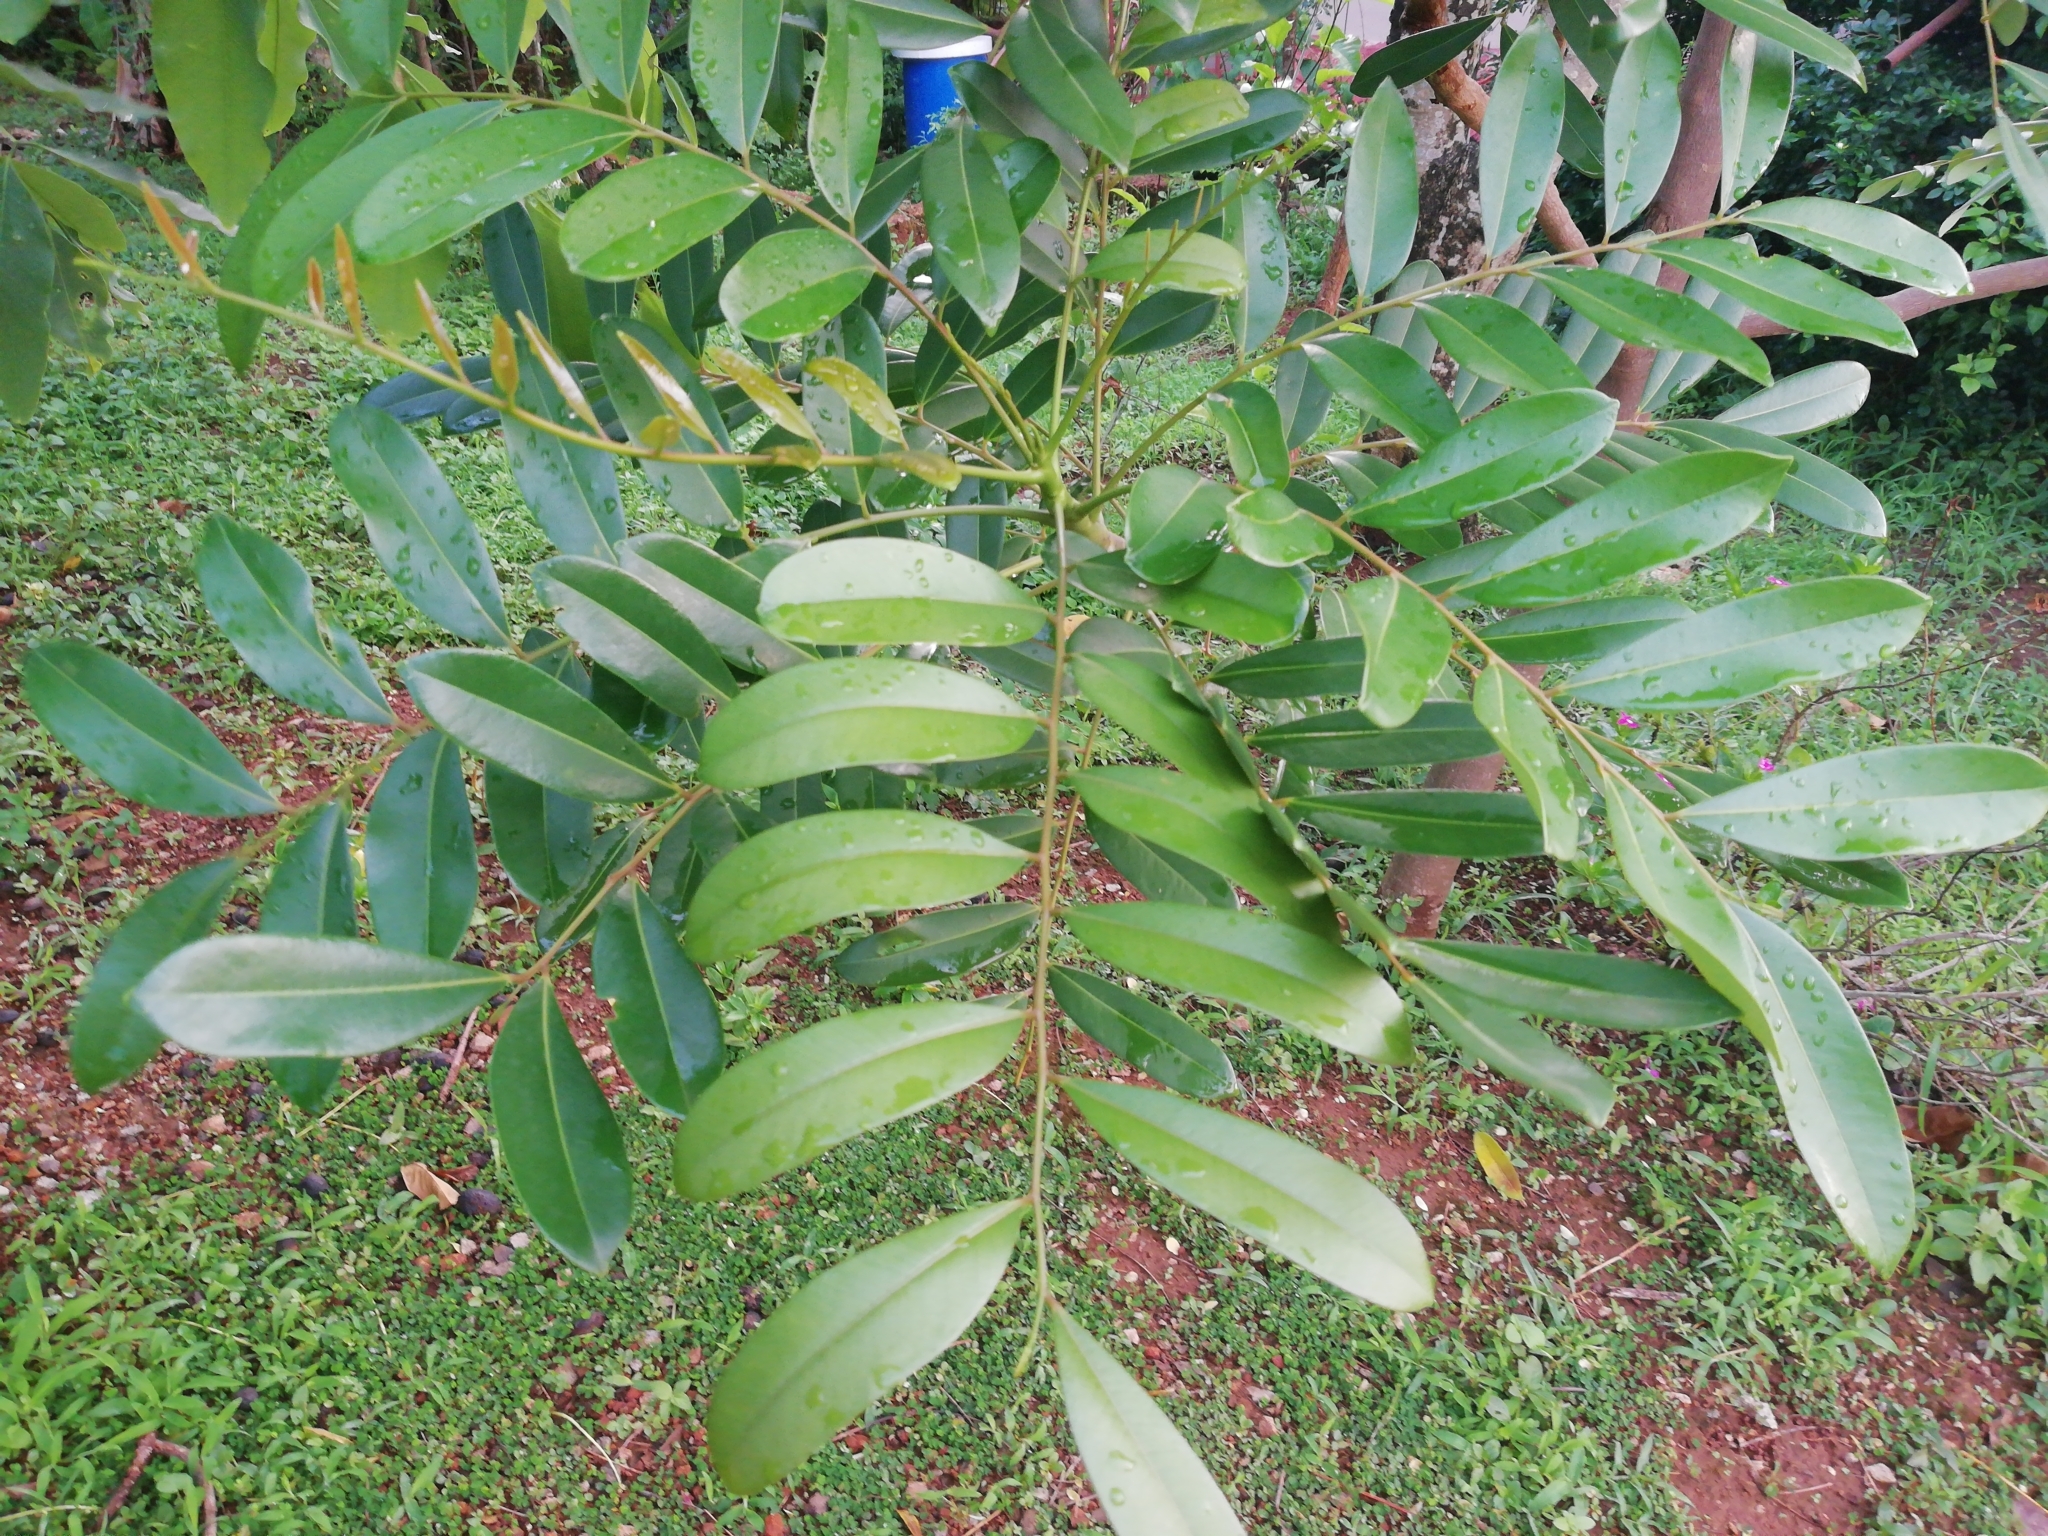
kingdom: Plantae
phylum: Tracheophyta
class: Magnoliopsida
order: Sapindales
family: Simaroubaceae
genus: Simarouba
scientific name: Simarouba glauca
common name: Dysentery-bark
